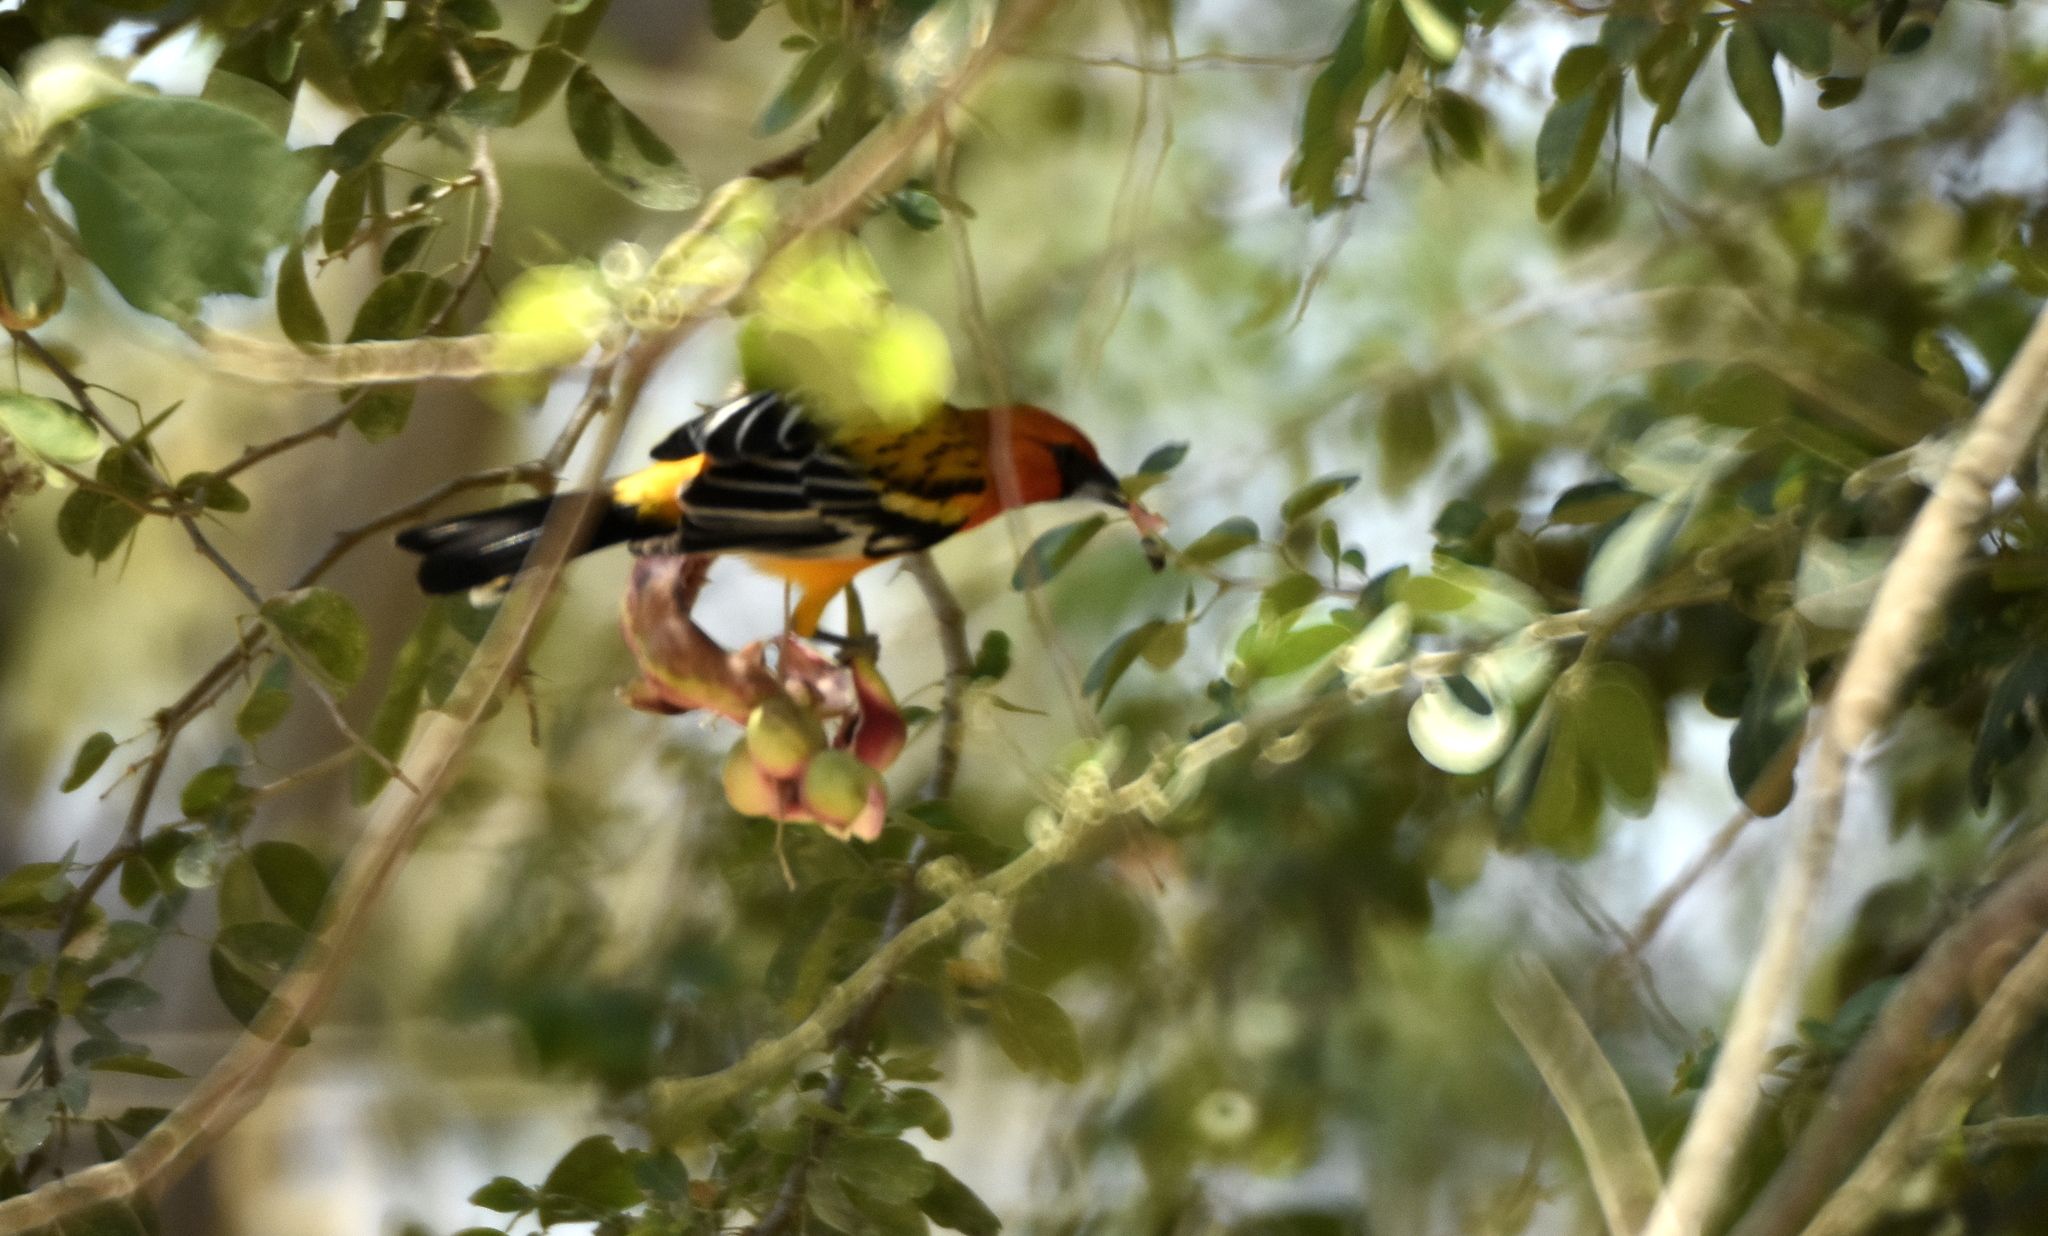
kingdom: Animalia
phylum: Chordata
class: Aves
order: Passeriformes
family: Icteridae
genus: Icterus
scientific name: Icterus pustulatus
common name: Streak-backed oriole
